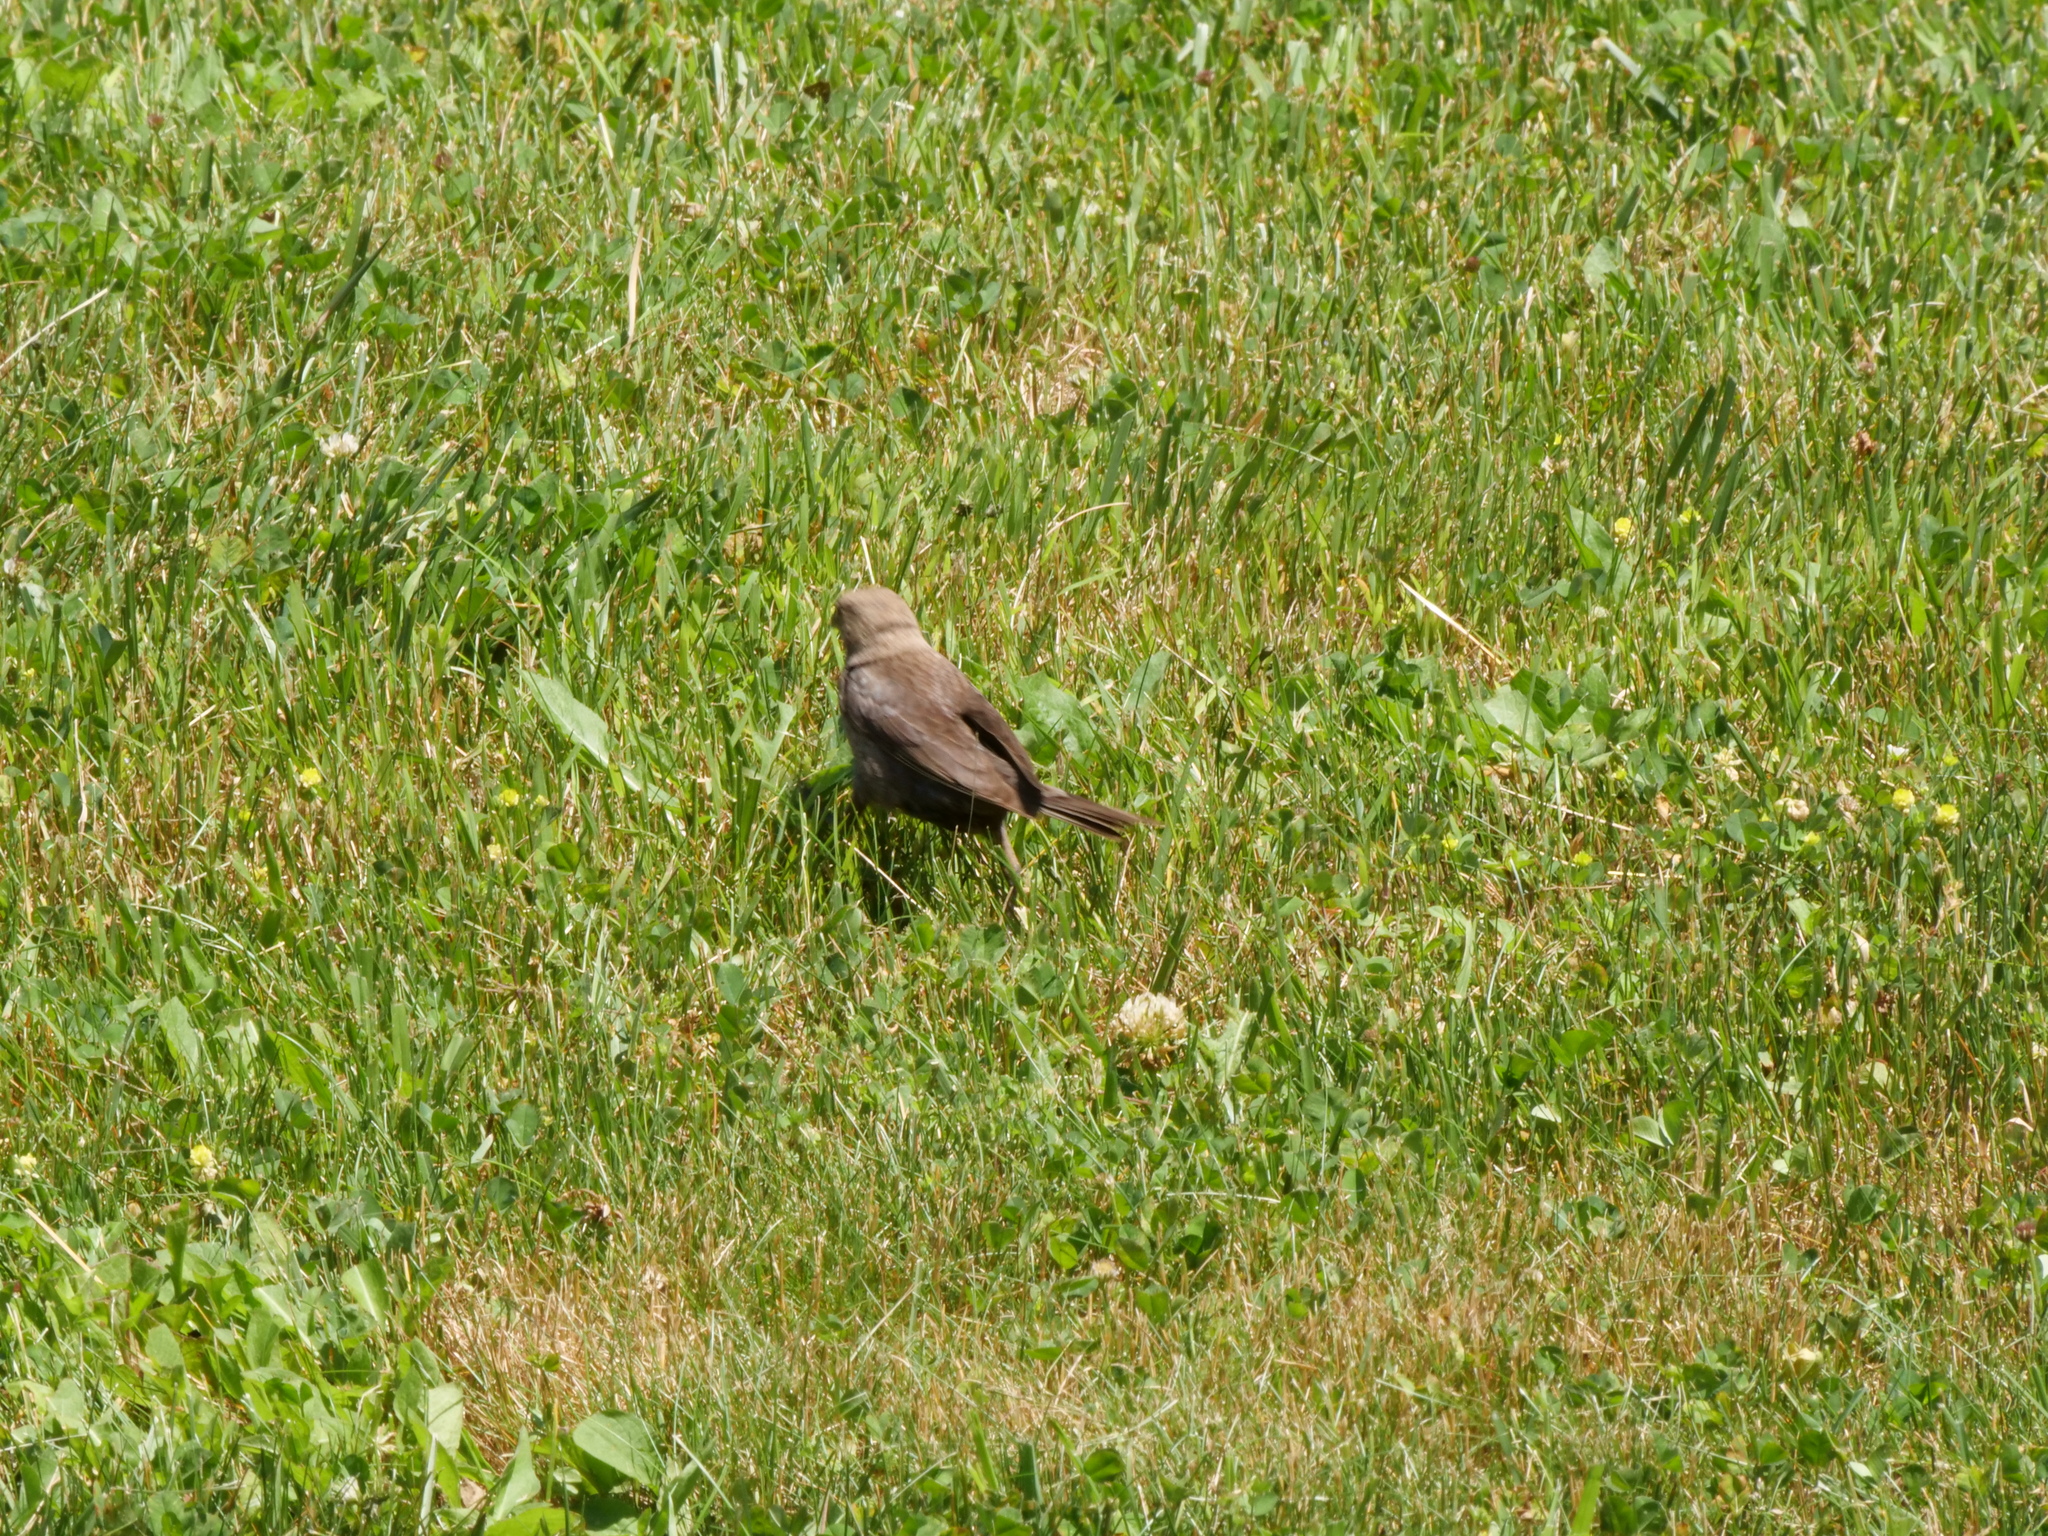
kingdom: Animalia
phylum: Chordata
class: Aves
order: Passeriformes
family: Icteridae
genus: Molothrus
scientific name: Molothrus ater
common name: Brown-headed cowbird
